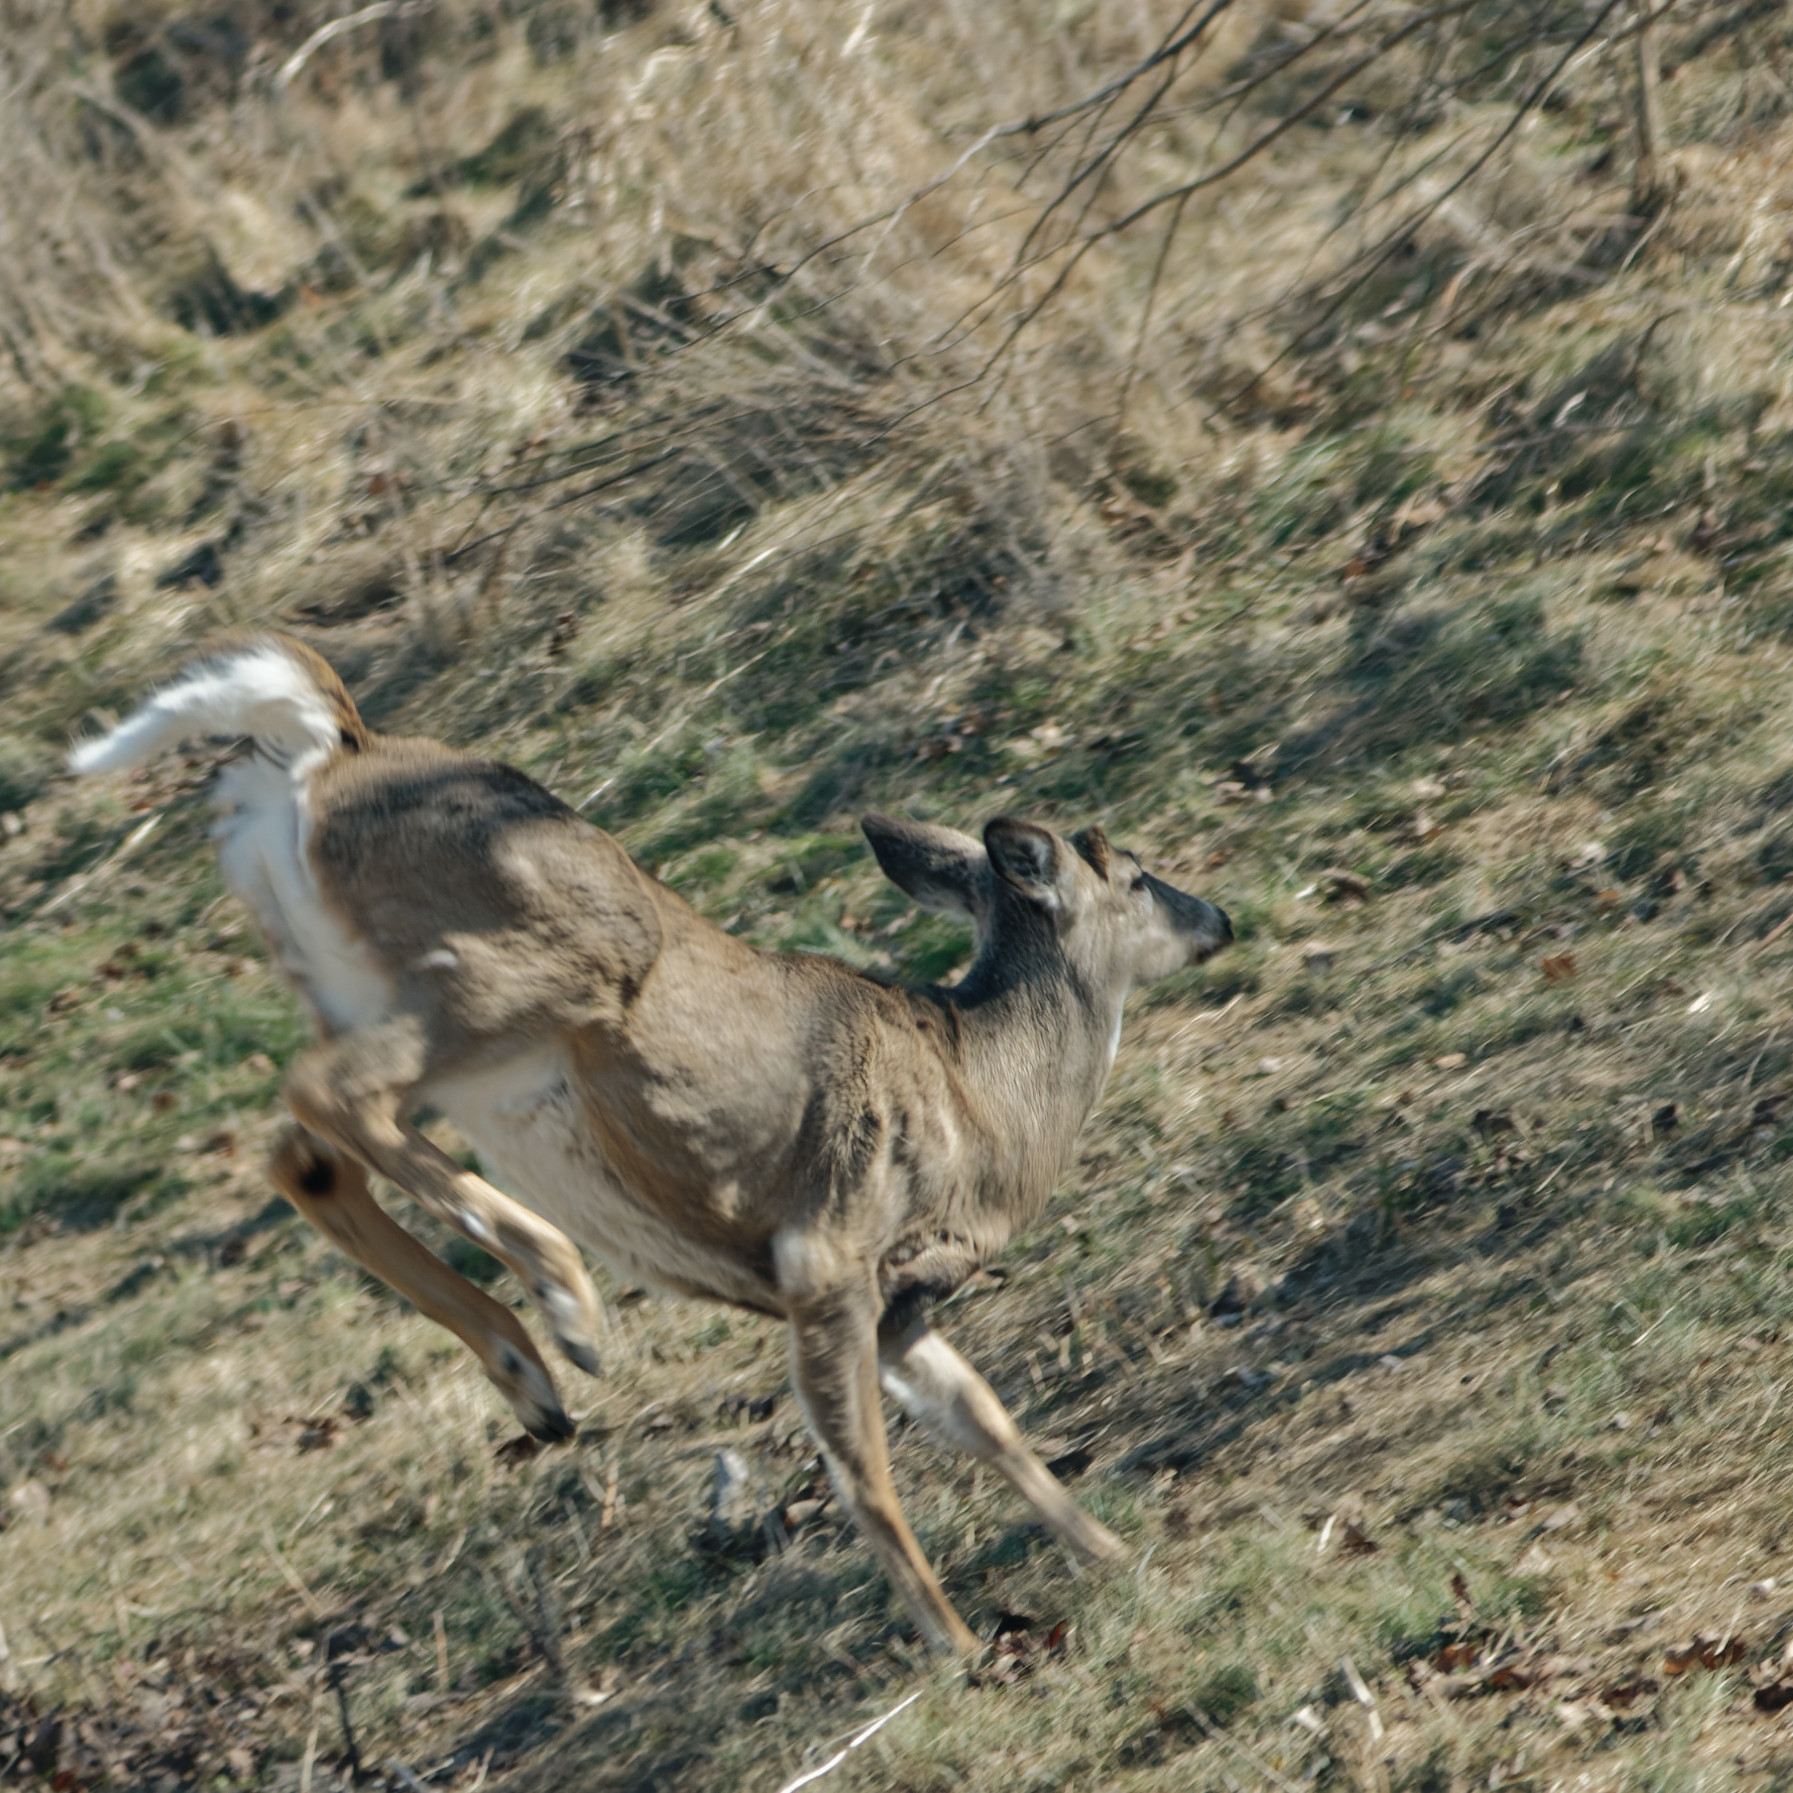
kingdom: Animalia
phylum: Chordata
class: Mammalia
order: Artiodactyla
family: Cervidae
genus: Odocoileus
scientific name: Odocoileus virginianus
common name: White-tailed deer
